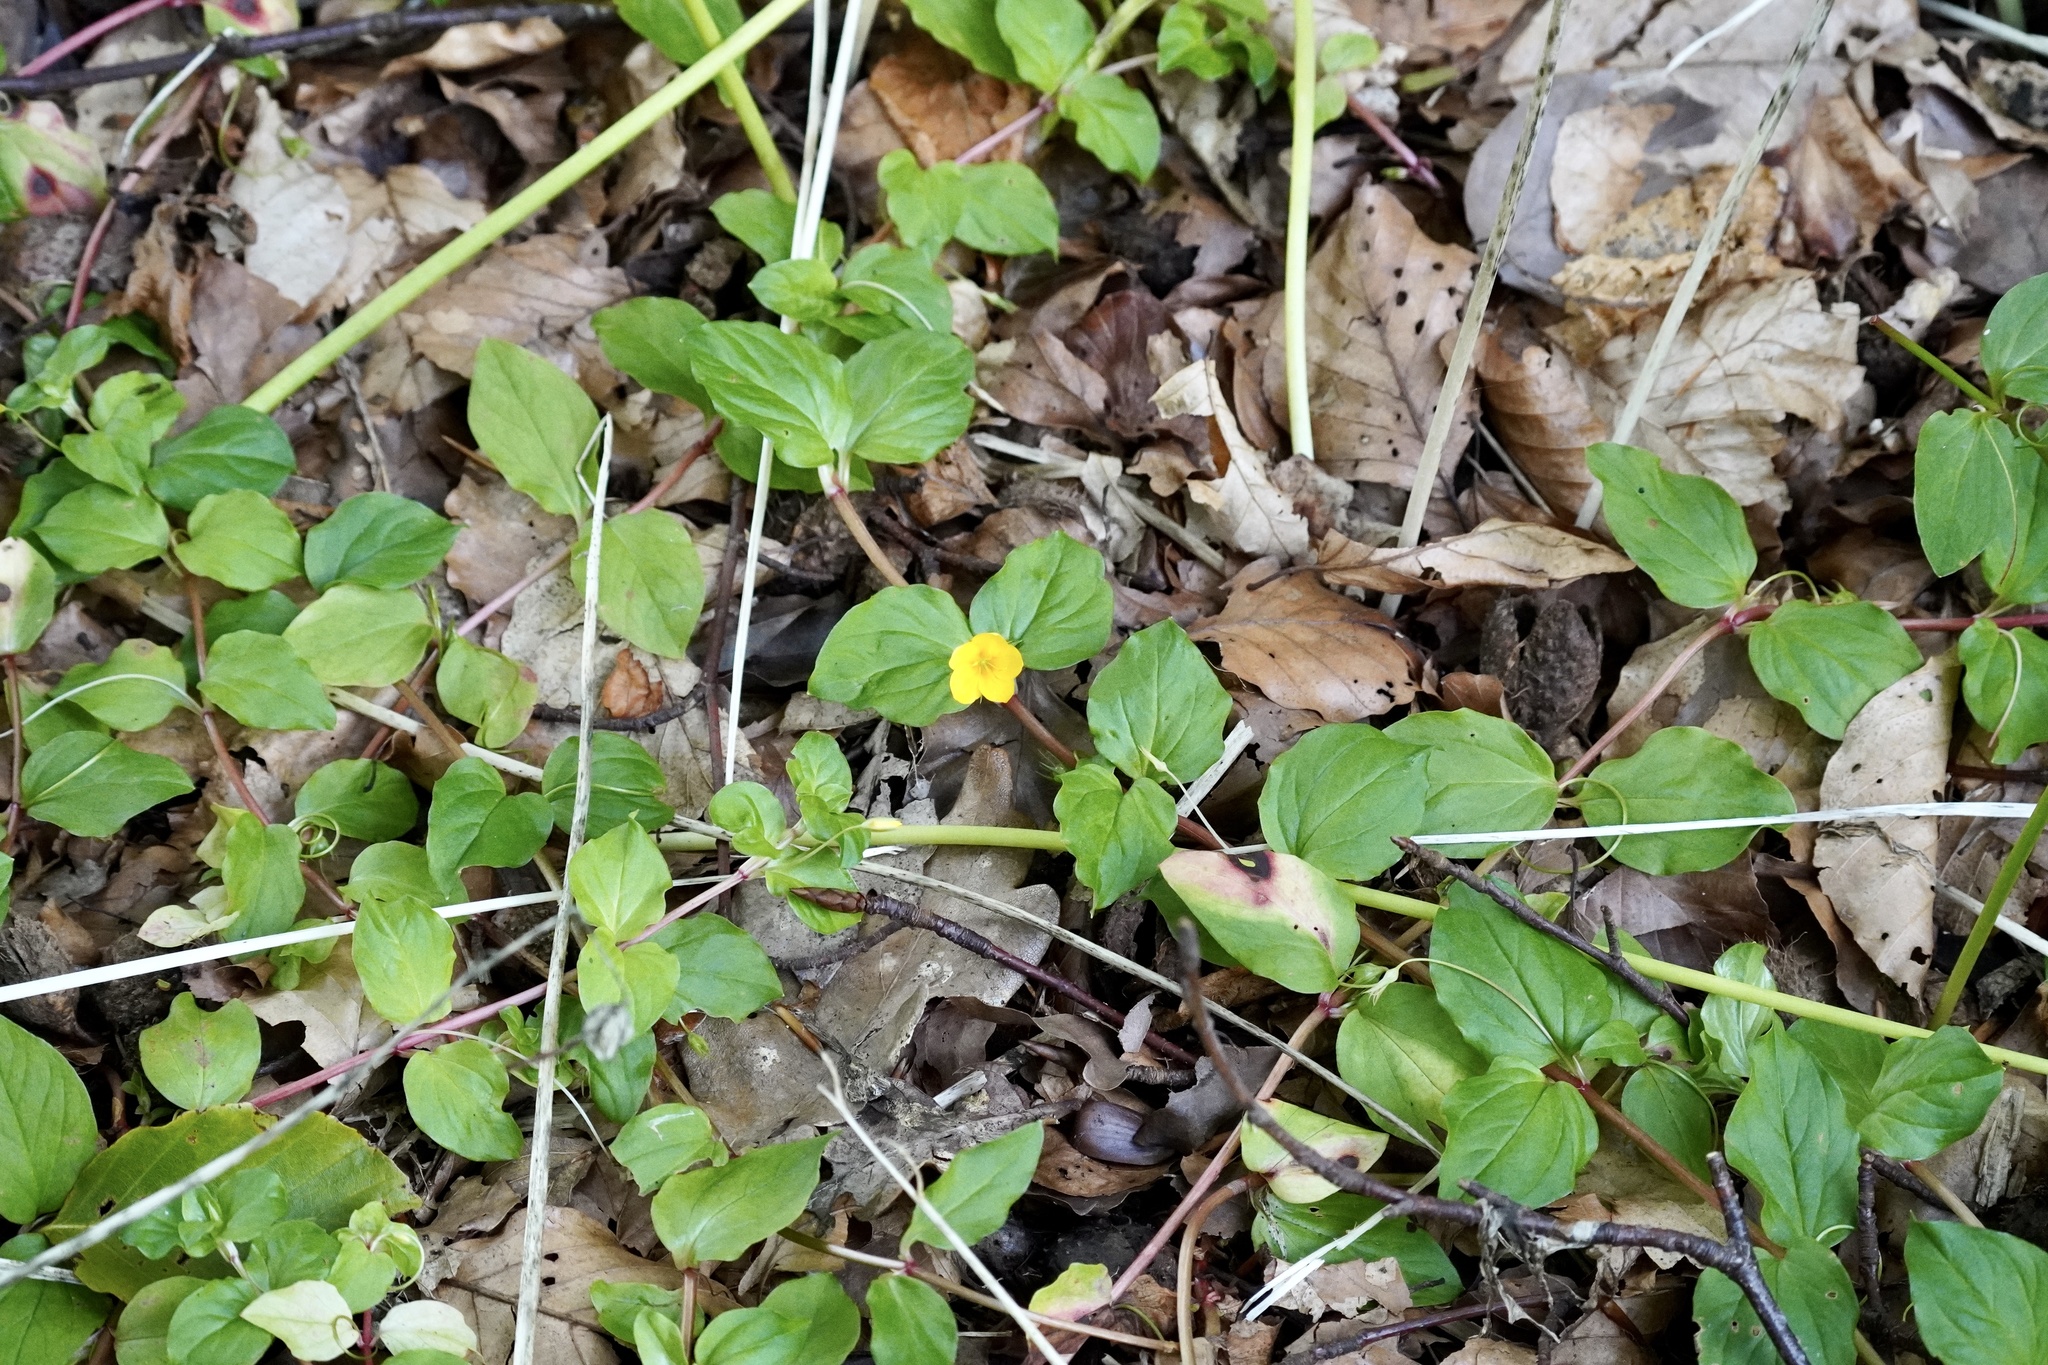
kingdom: Plantae
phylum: Tracheophyta
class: Magnoliopsida
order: Ericales
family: Primulaceae
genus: Lysimachia
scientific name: Lysimachia nemorum
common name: Yellow pimpernel
